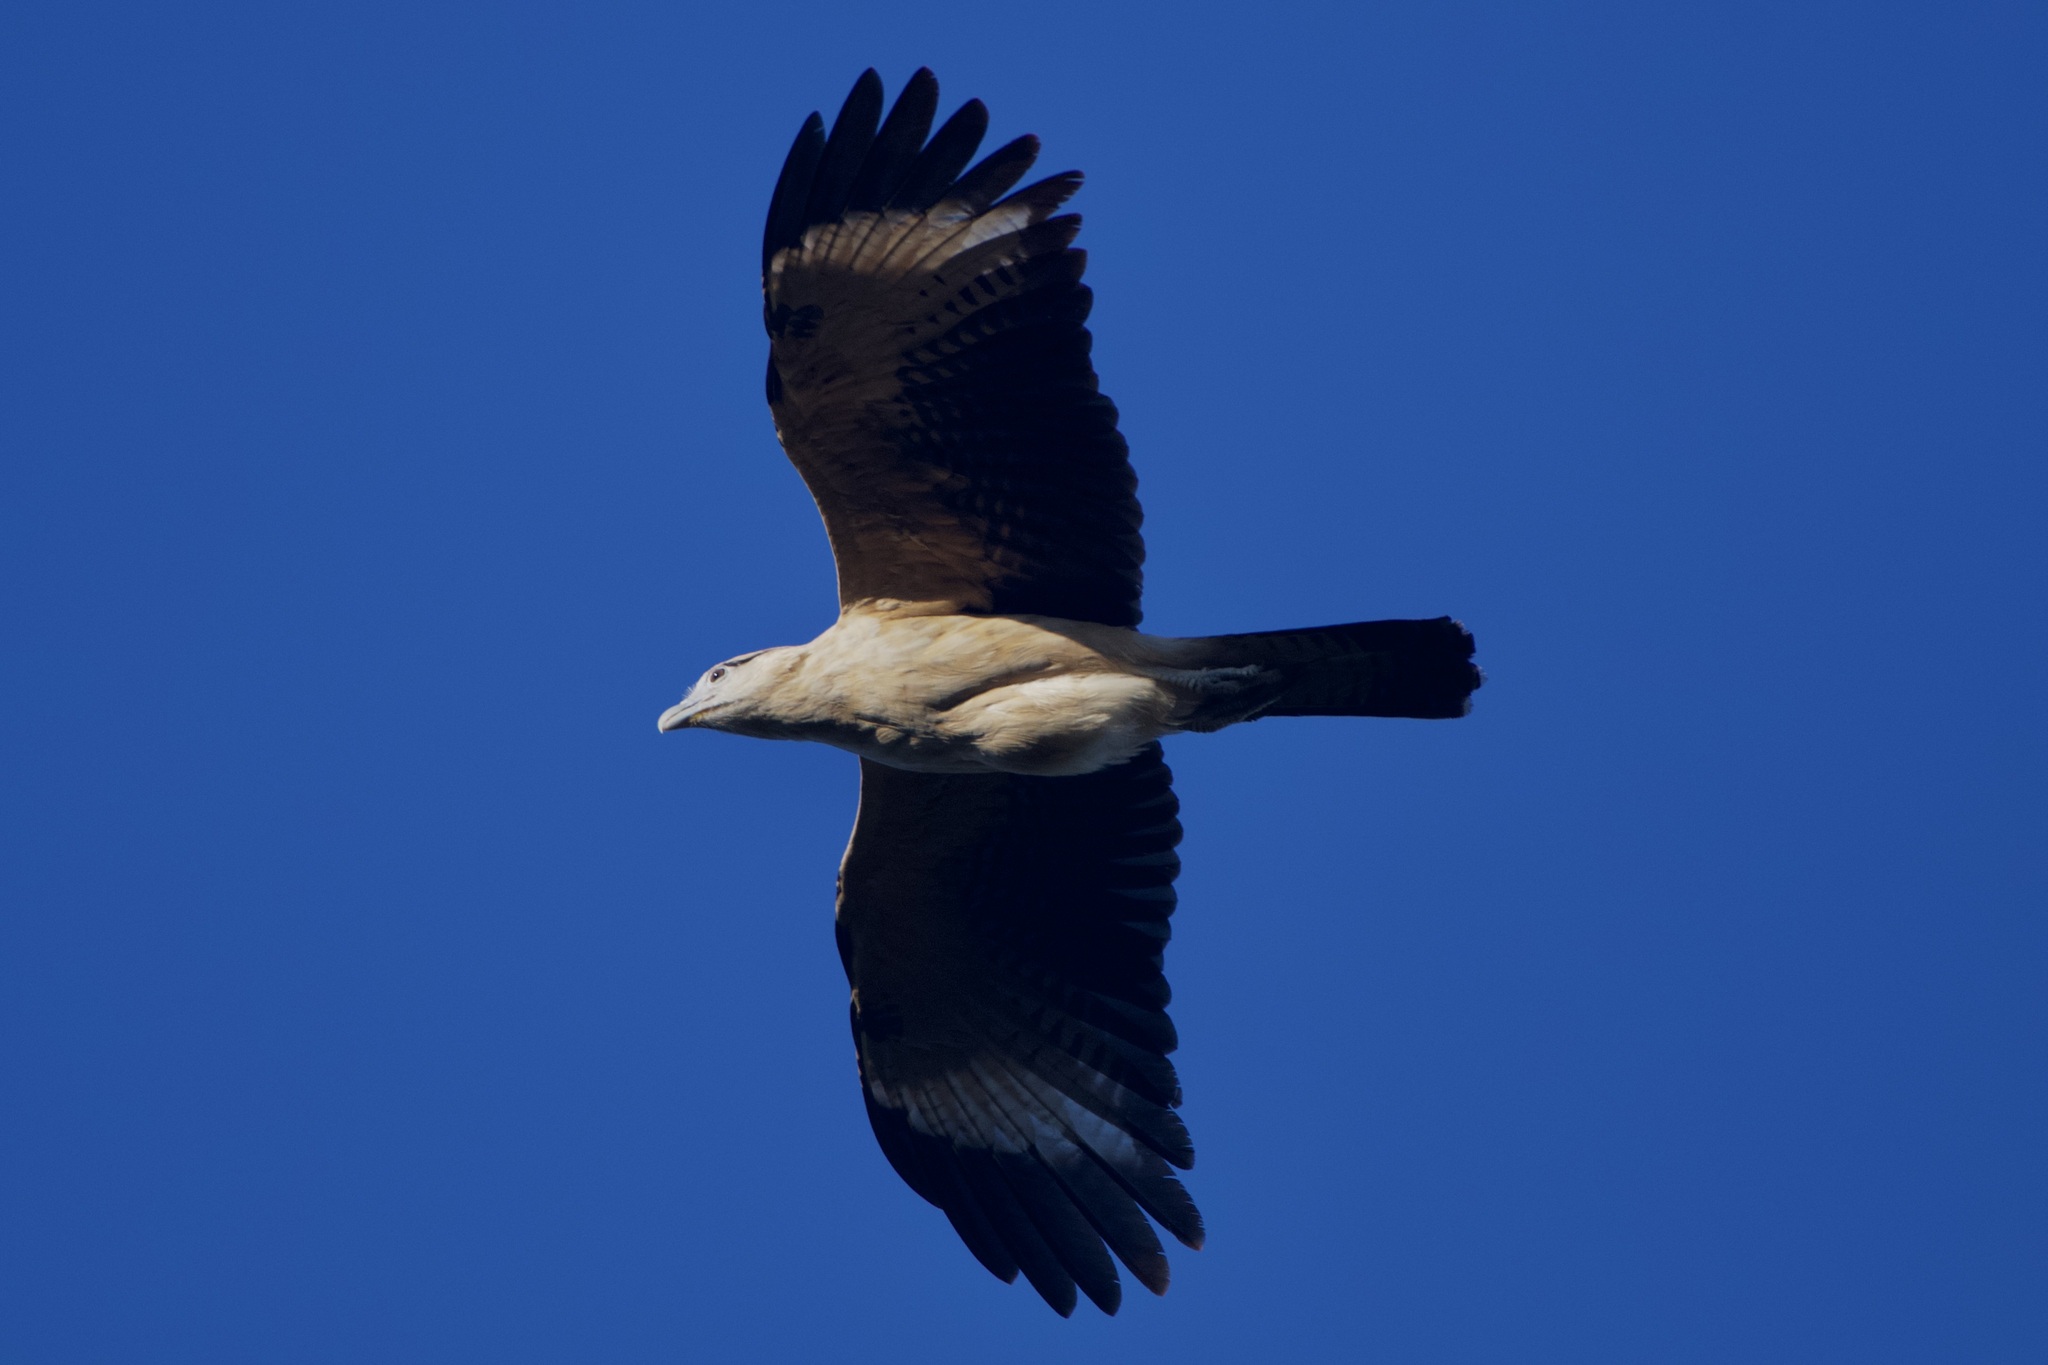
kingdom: Animalia
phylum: Chordata
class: Aves
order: Falconiformes
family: Falconidae
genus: Daptrius
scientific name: Daptrius
